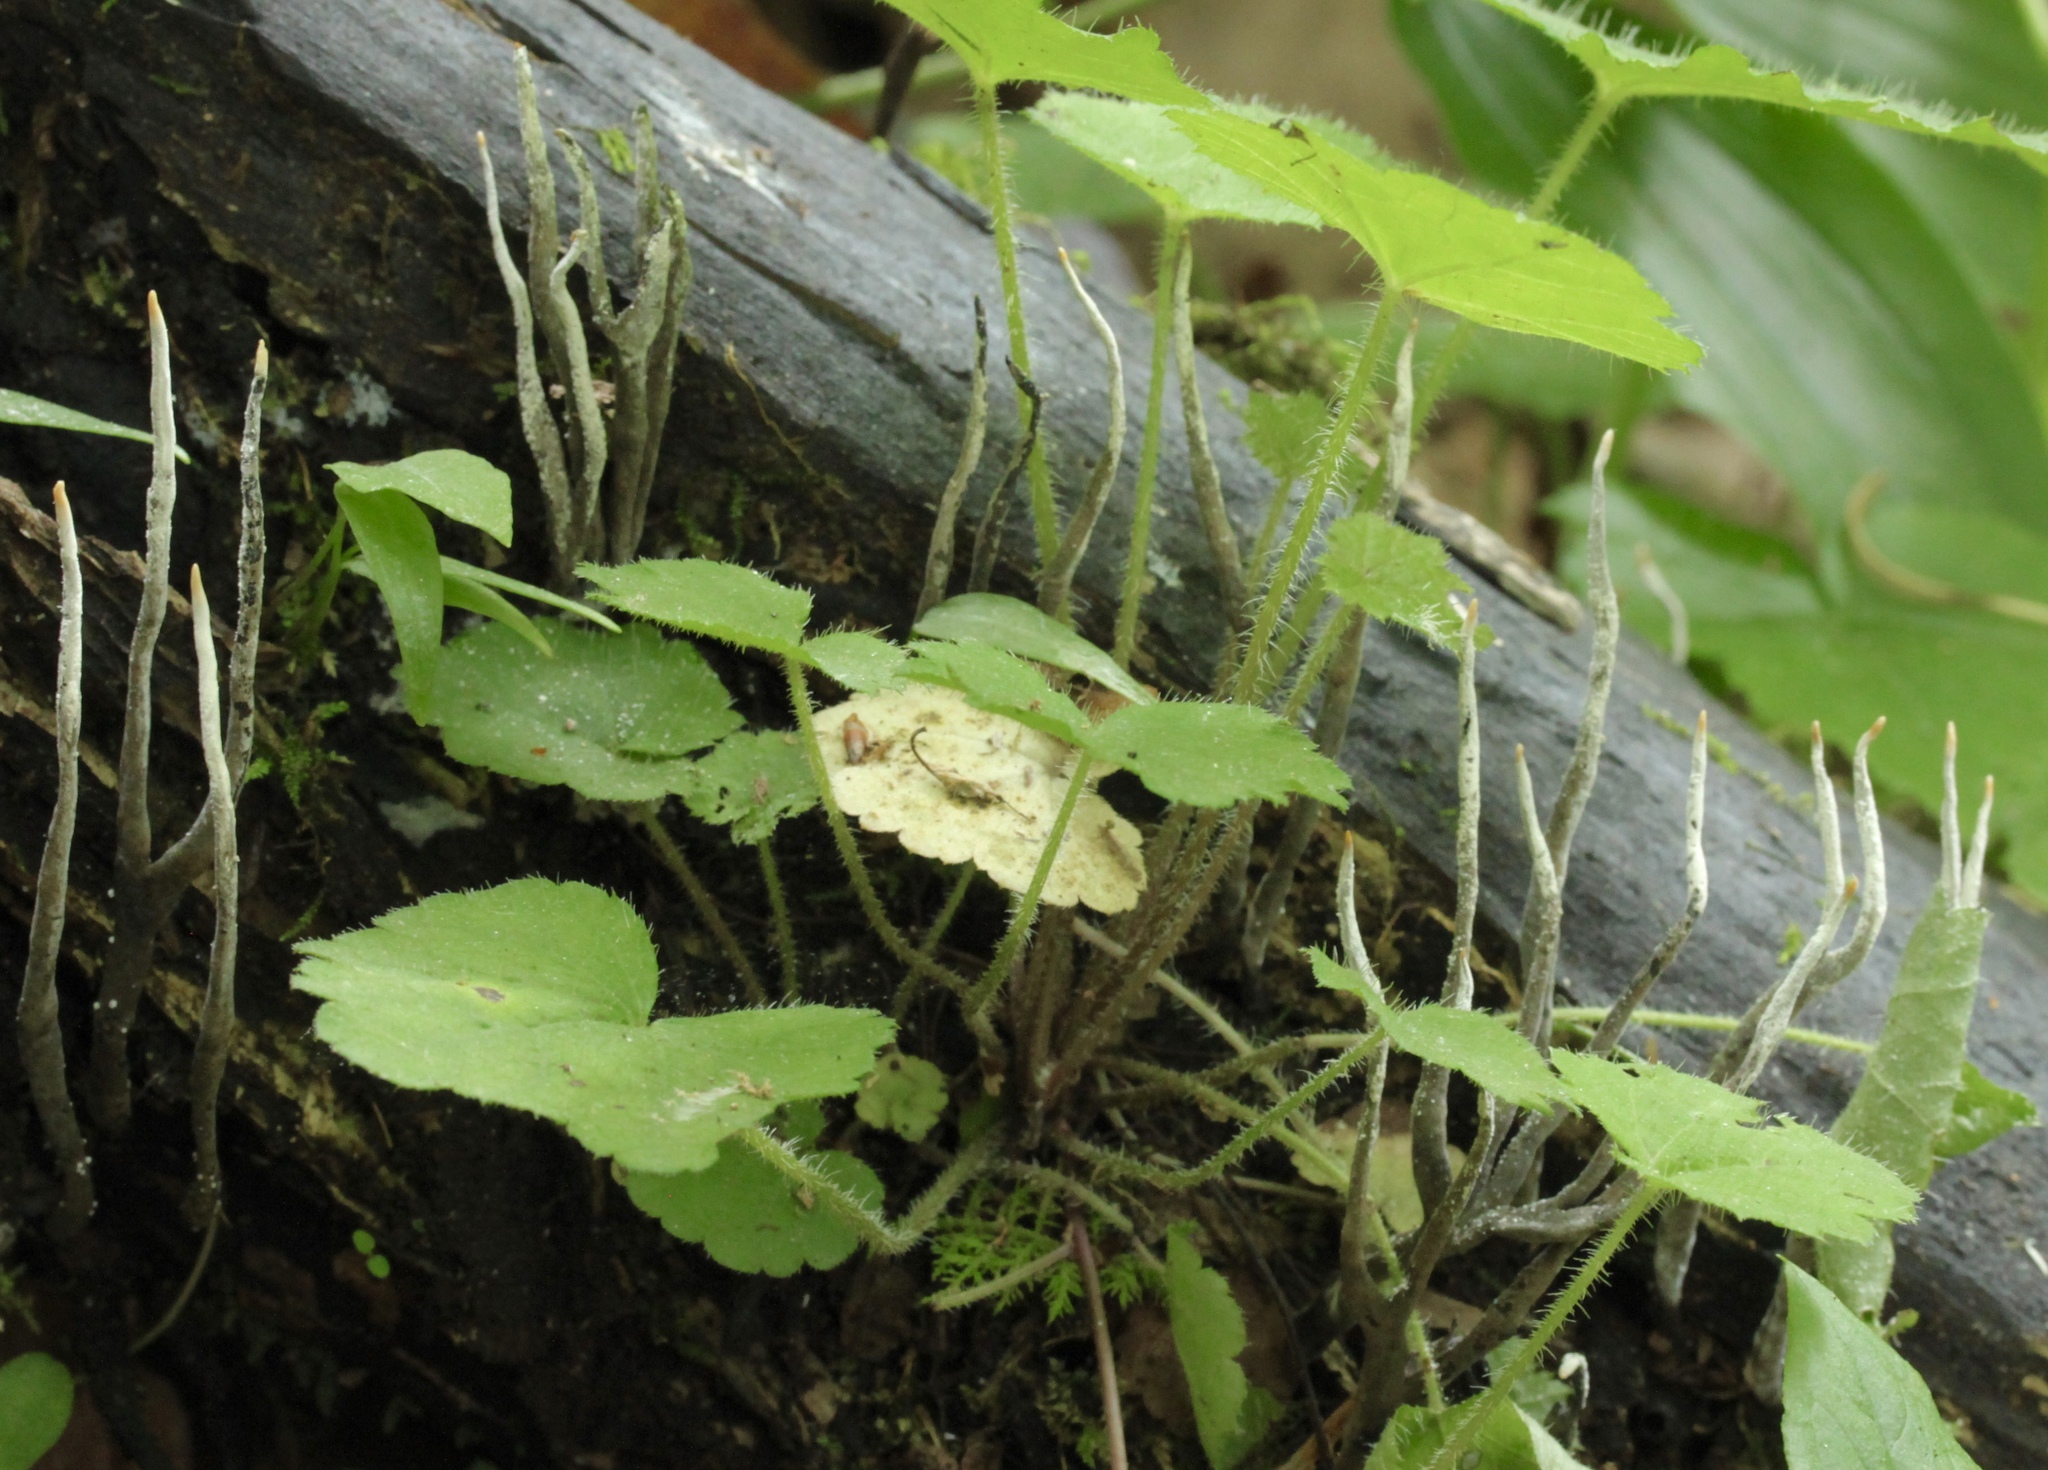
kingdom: Fungi
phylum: Ascomycota
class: Sordariomycetes
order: Xylariales
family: Xylariaceae
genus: Xylaria
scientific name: Xylaria hypoxylon
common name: Candle-snuff fungus
